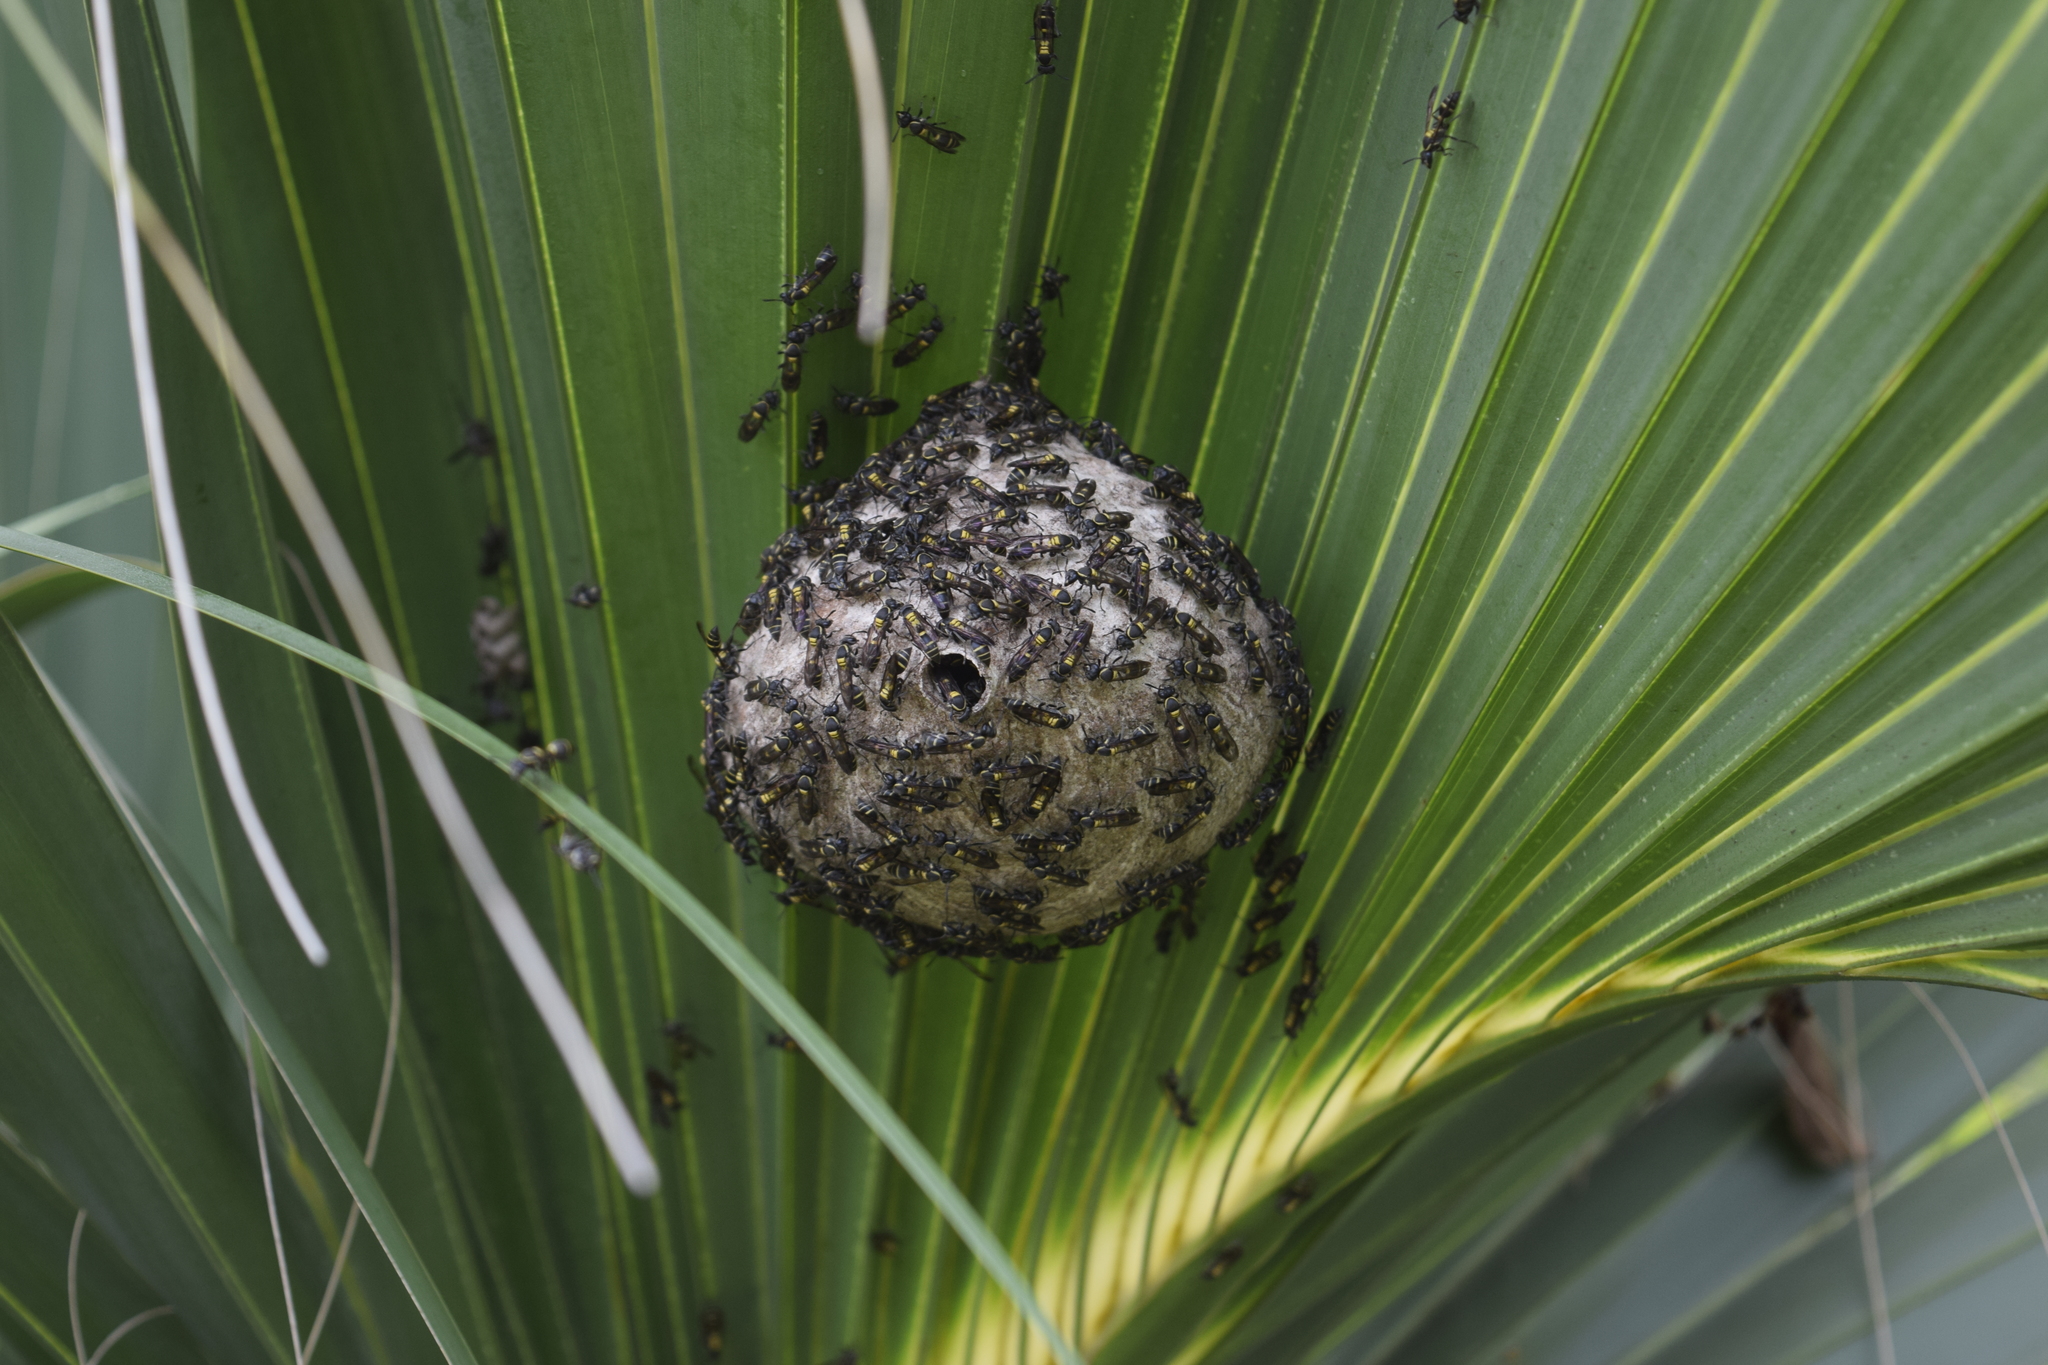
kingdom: Animalia
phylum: Arthropoda
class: Insecta
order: Hymenoptera
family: Eumenidae
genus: Polybia
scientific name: Polybia occidentalis
